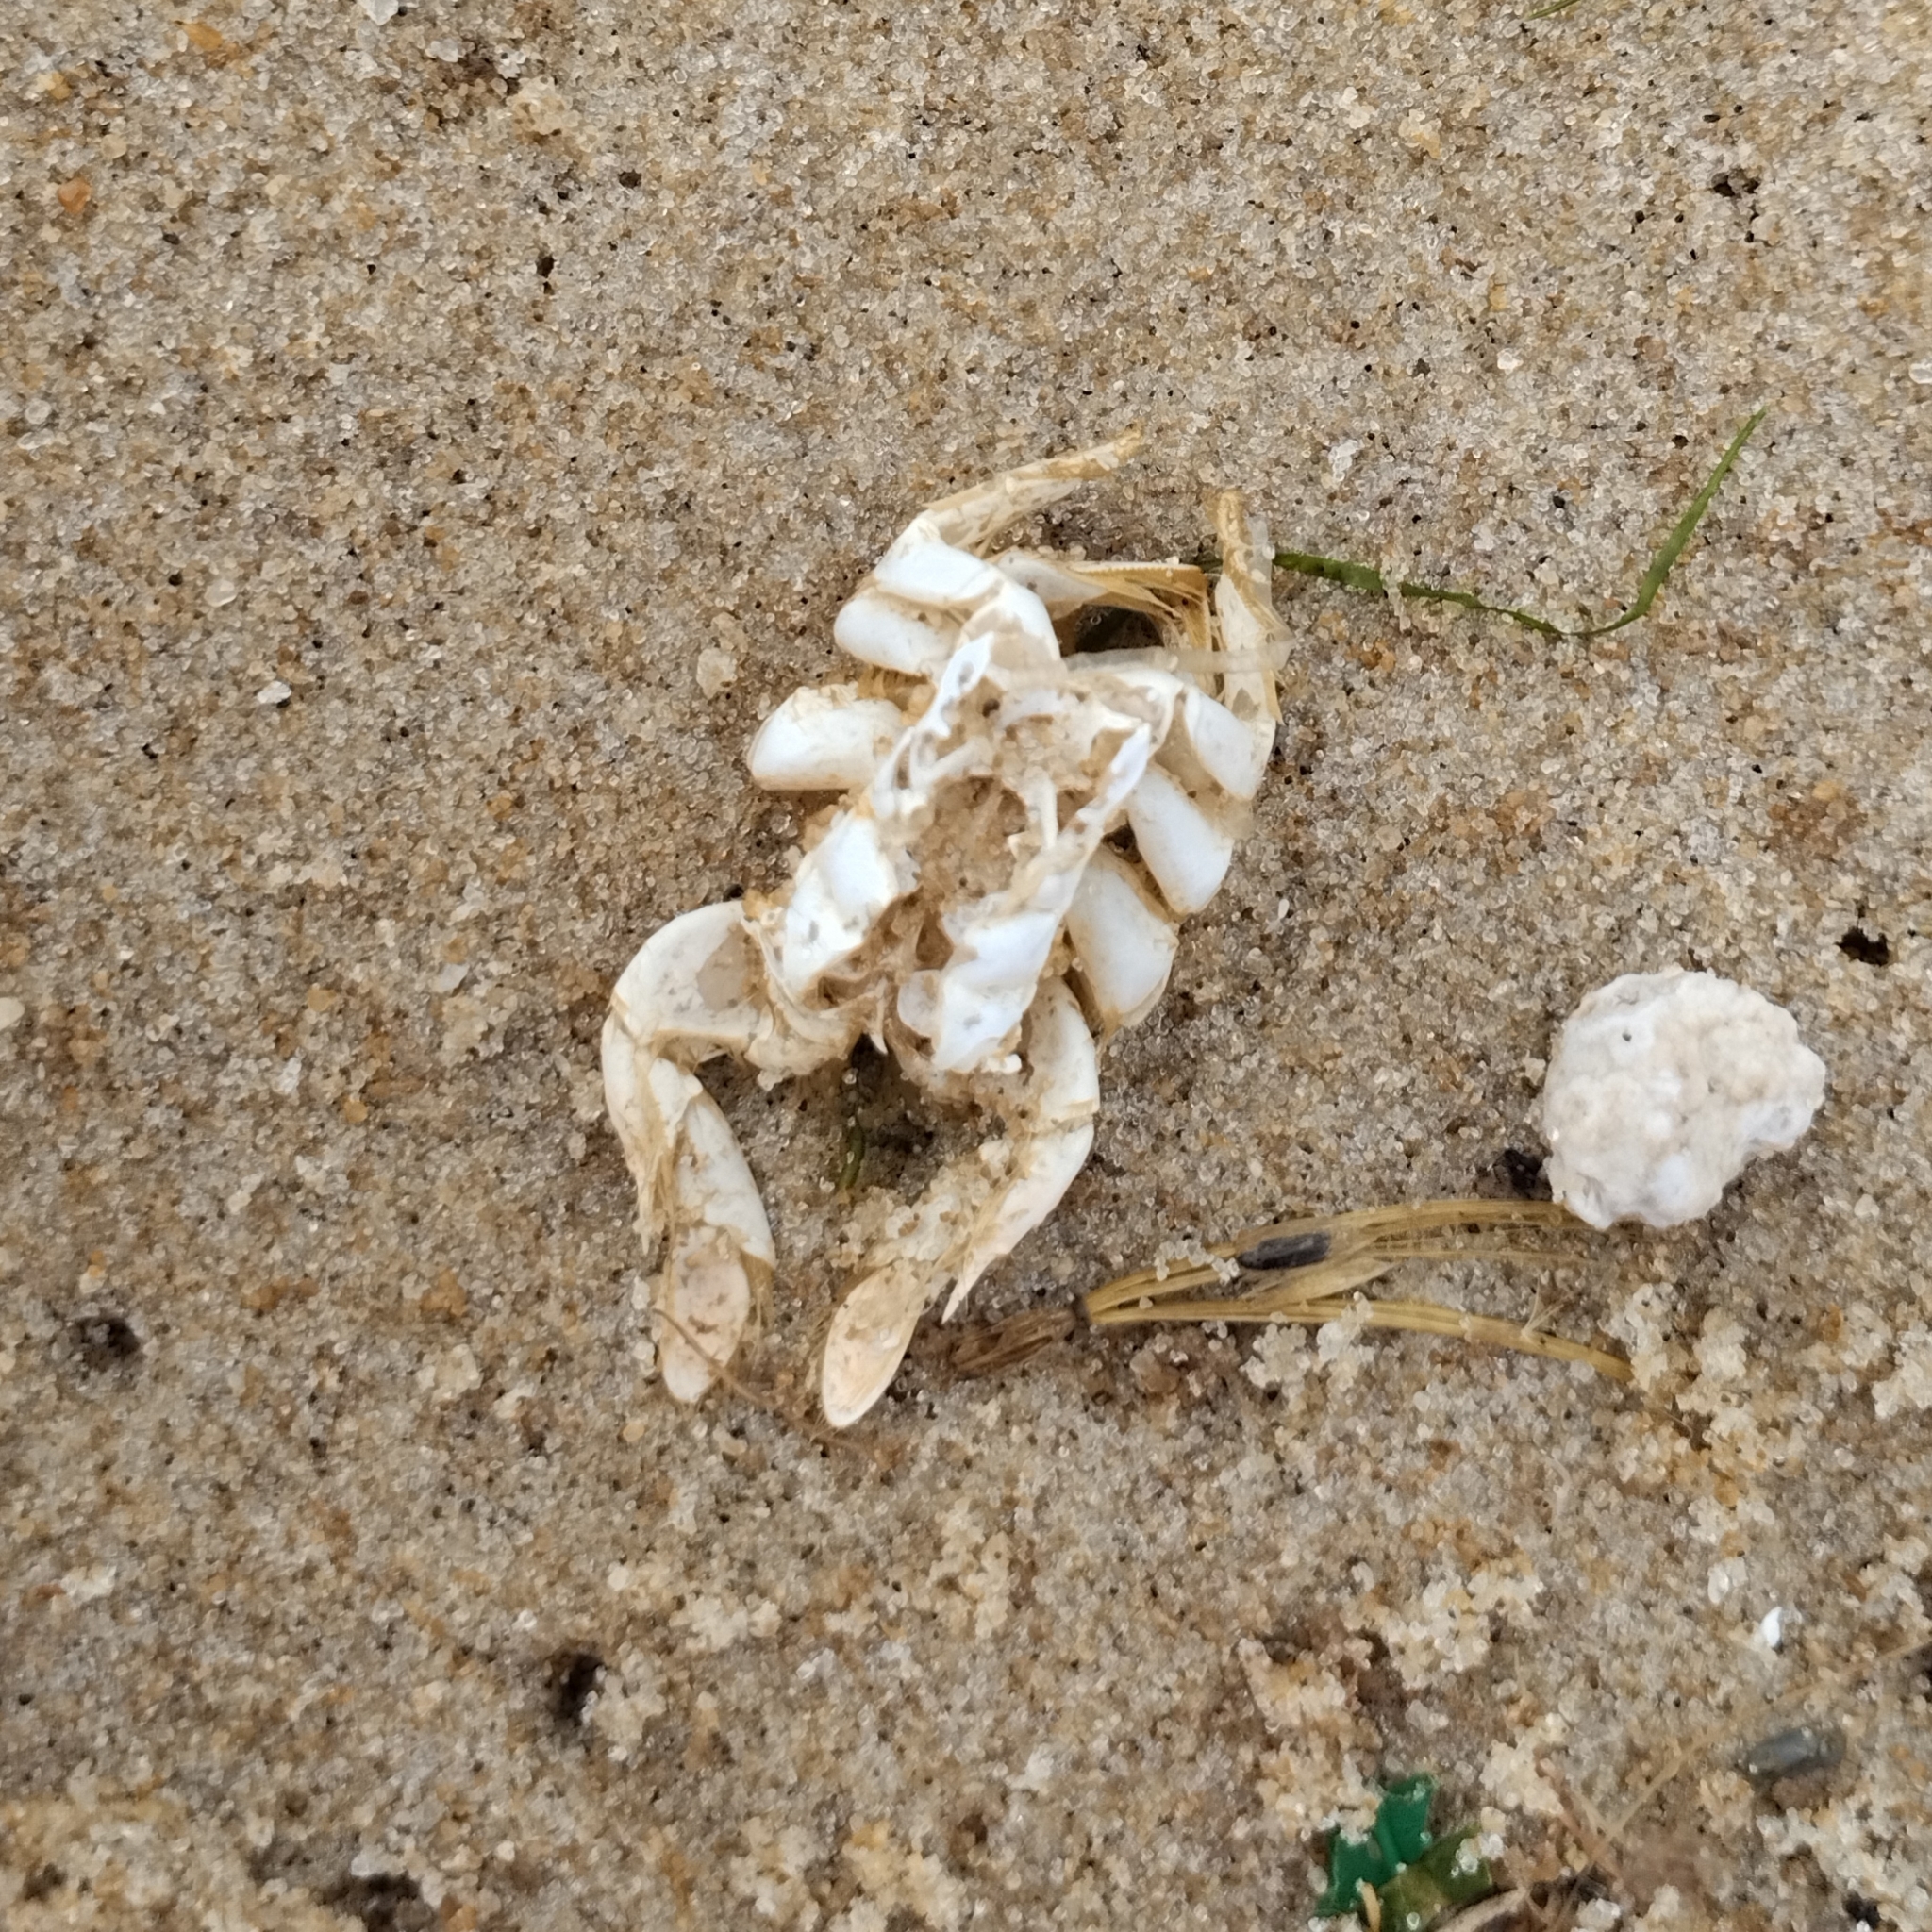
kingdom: Animalia
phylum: Arthropoda
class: Malacostraca
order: Decapoda
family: Hippidae
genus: Emerita
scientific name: Emerita brasiliensis
